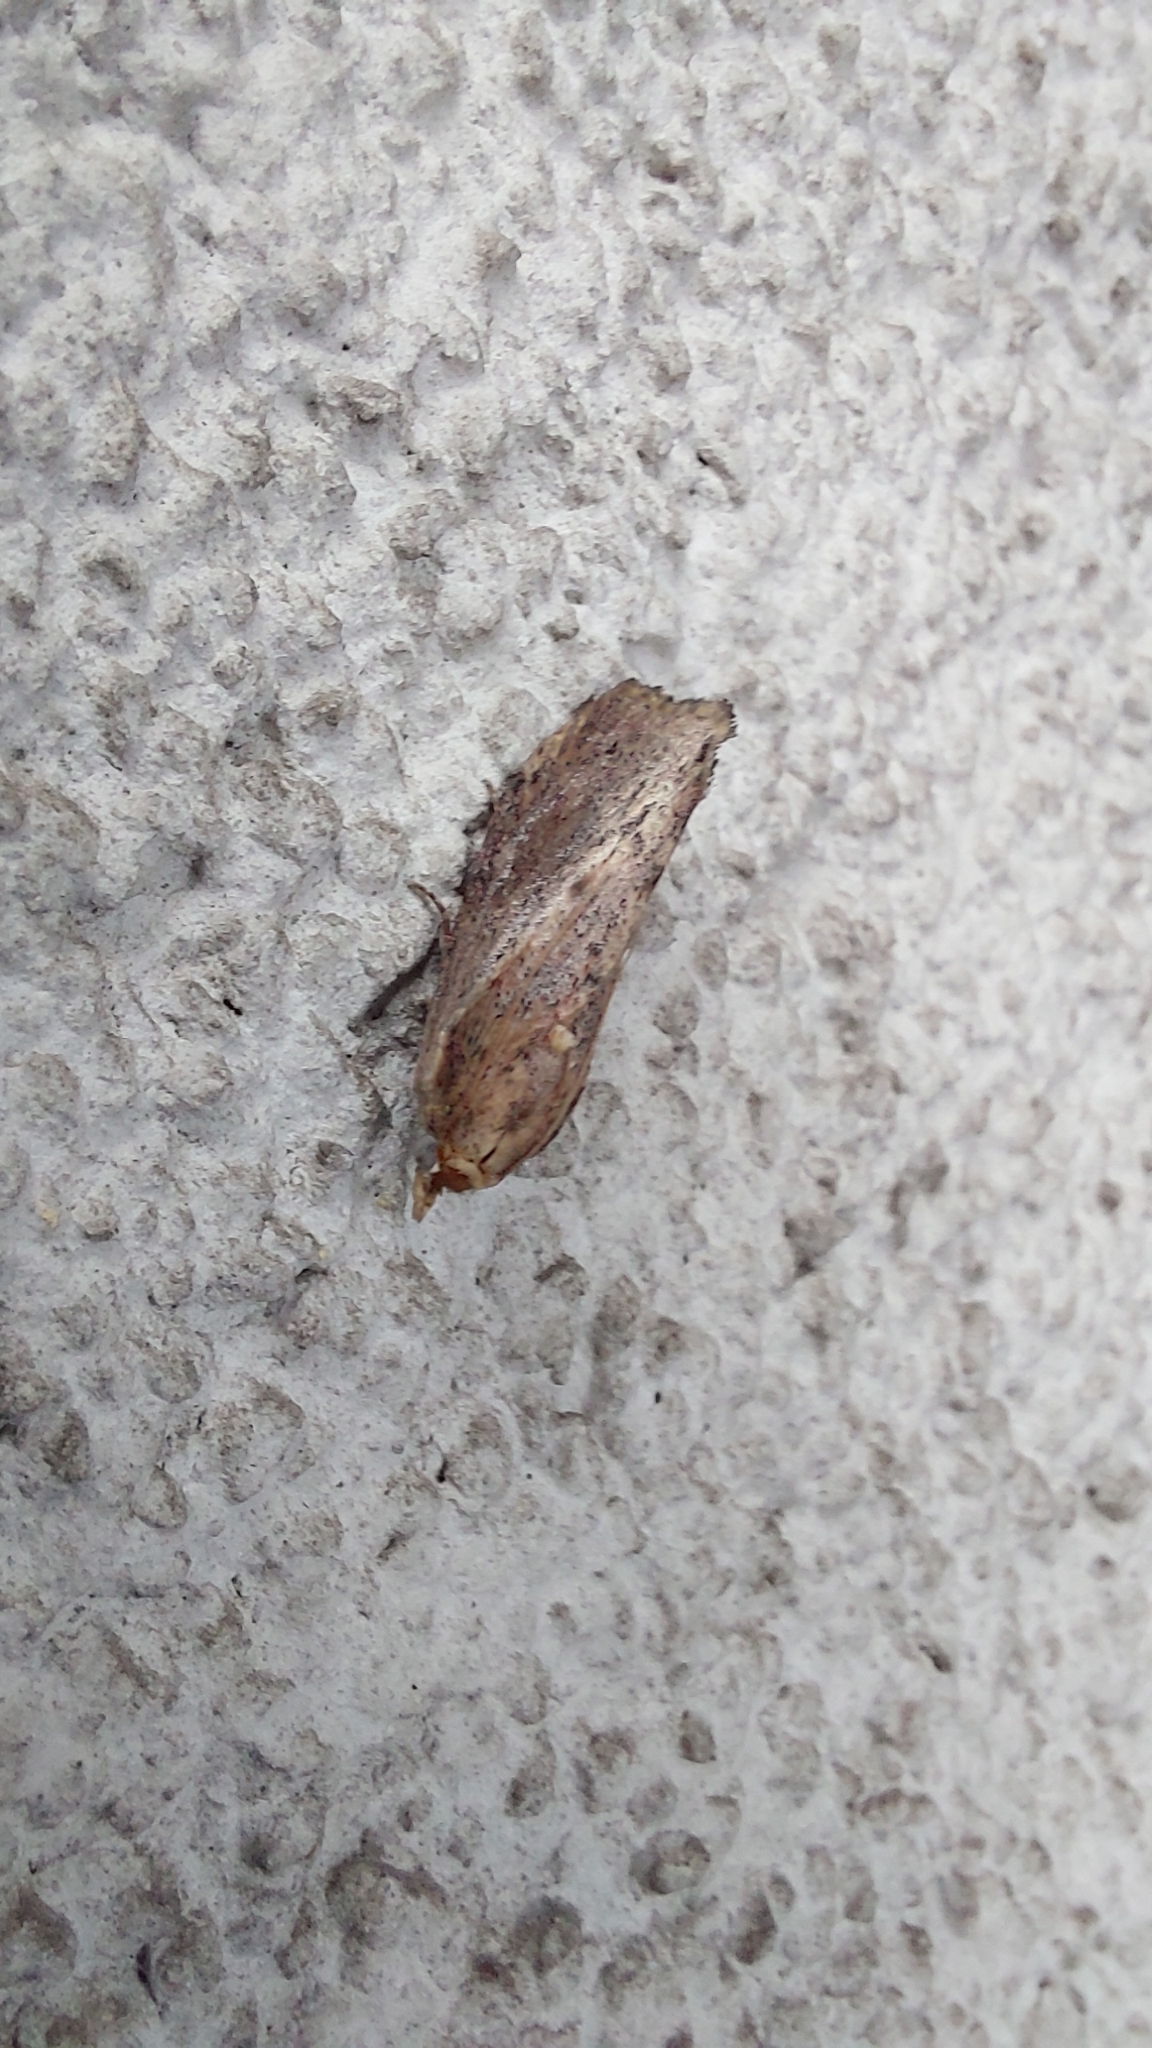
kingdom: Animalia
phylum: Arthropoda
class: Insecta
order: Lepidoptera
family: Pyralidae
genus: Galleria
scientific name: Galleria mellonella
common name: Greater wax moth
